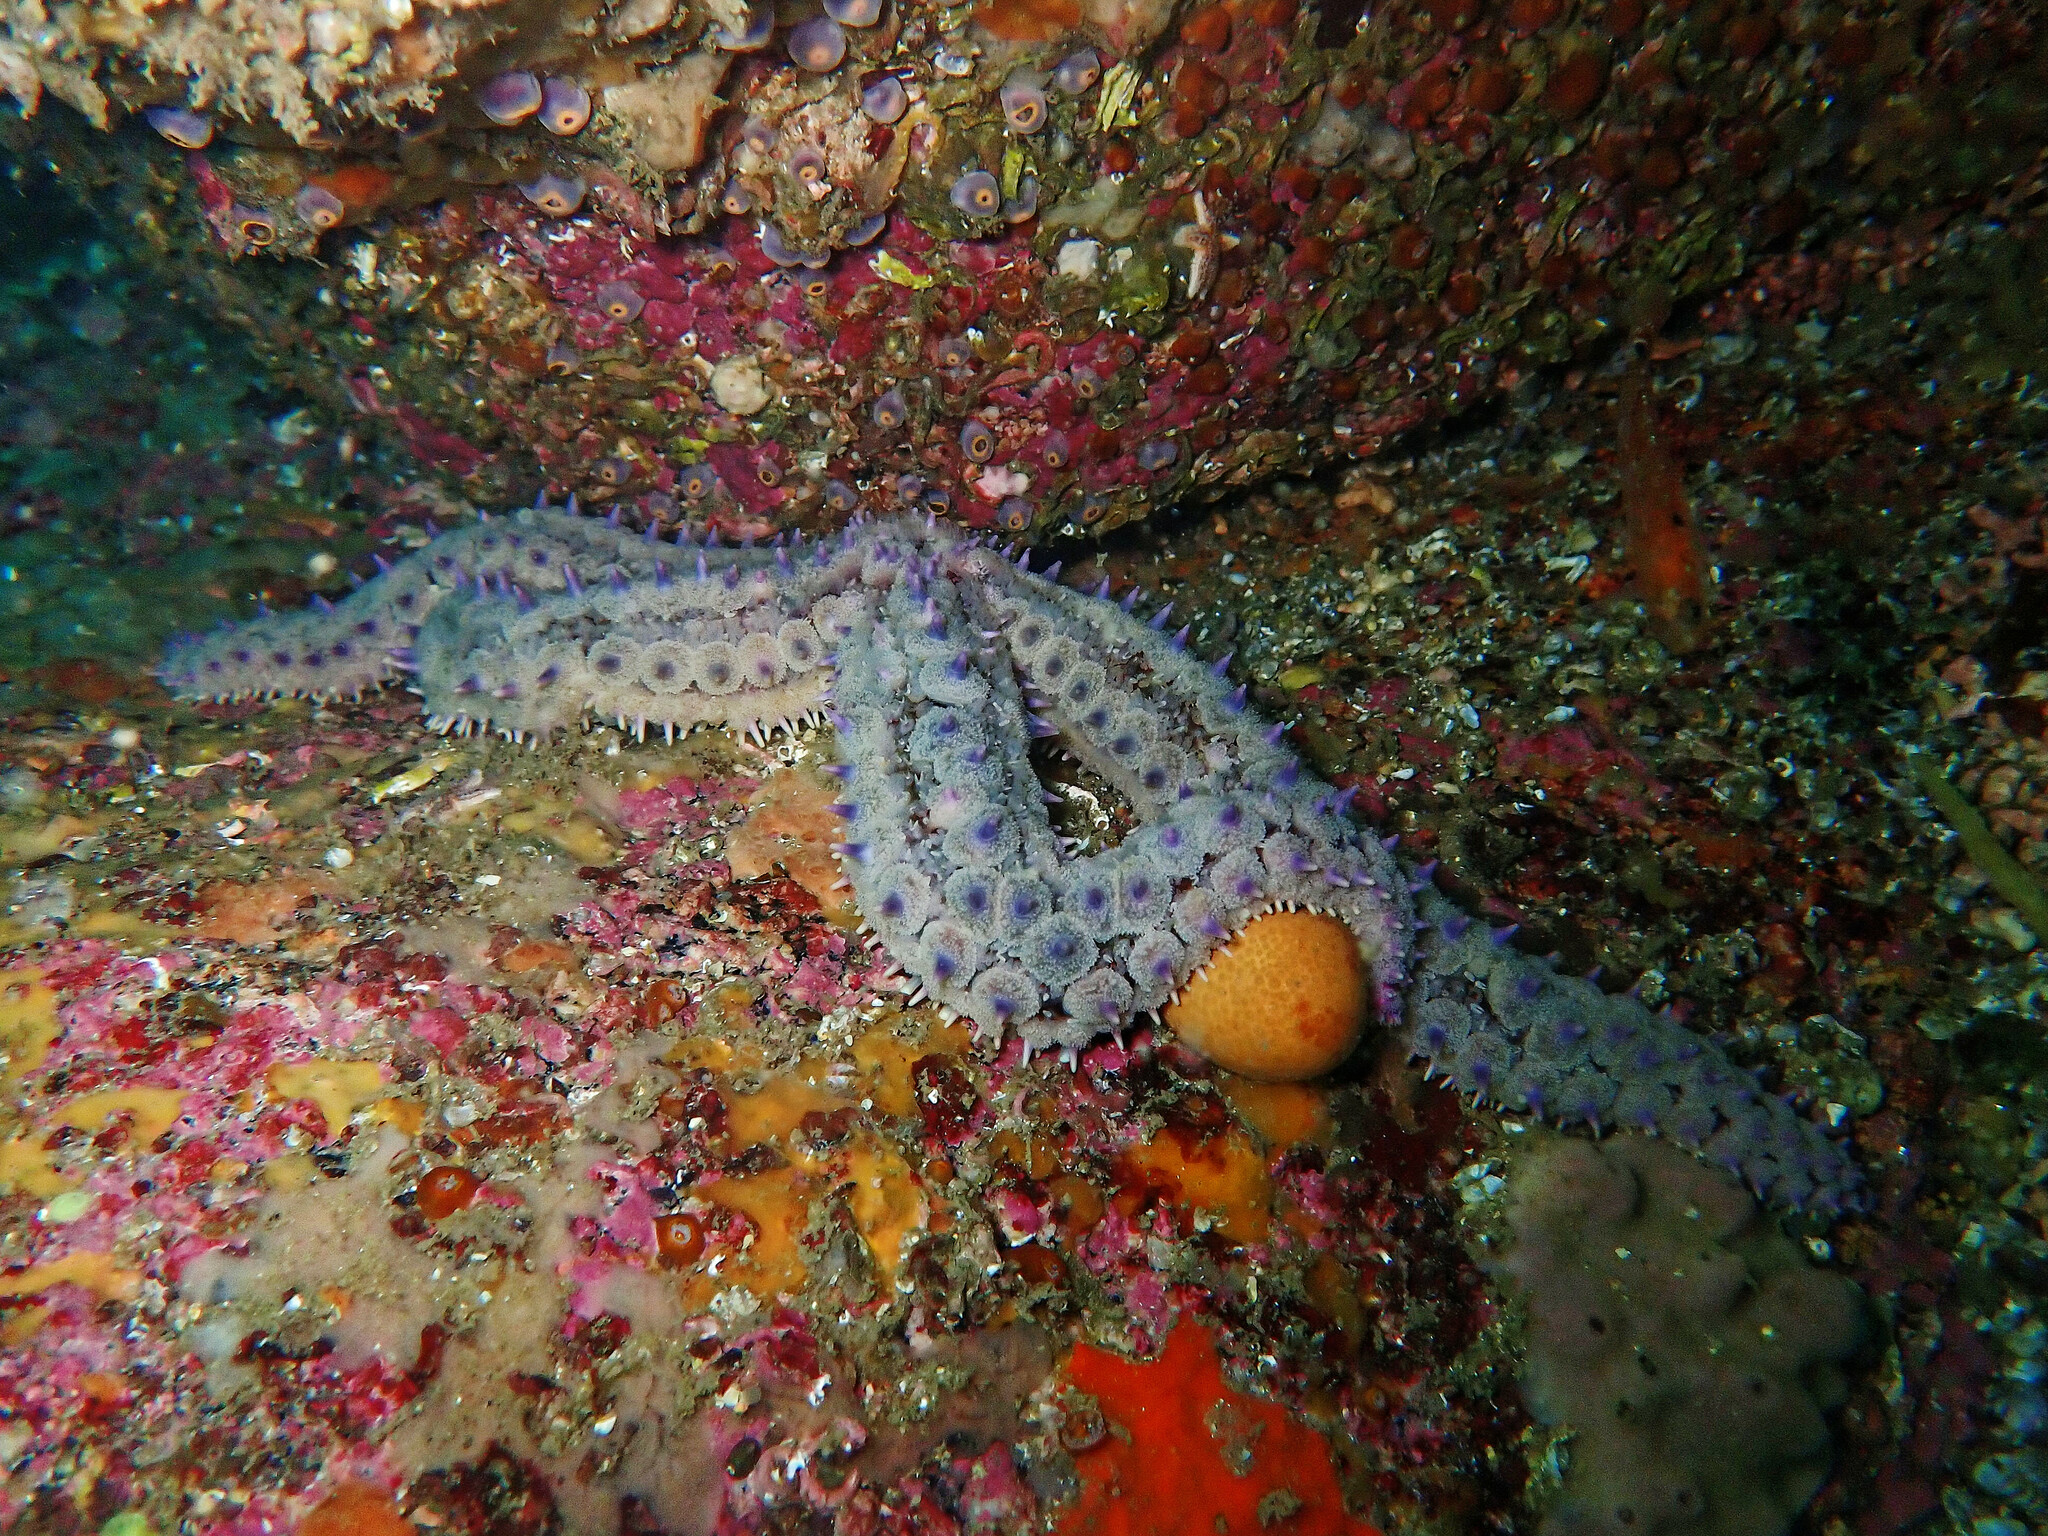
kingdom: Animalia
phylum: Echinodermata
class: Asteroidea
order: Forcipulatida
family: Asteriidae
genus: Marthasterias
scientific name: Marthasterias glacialis
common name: Spiny starfish
